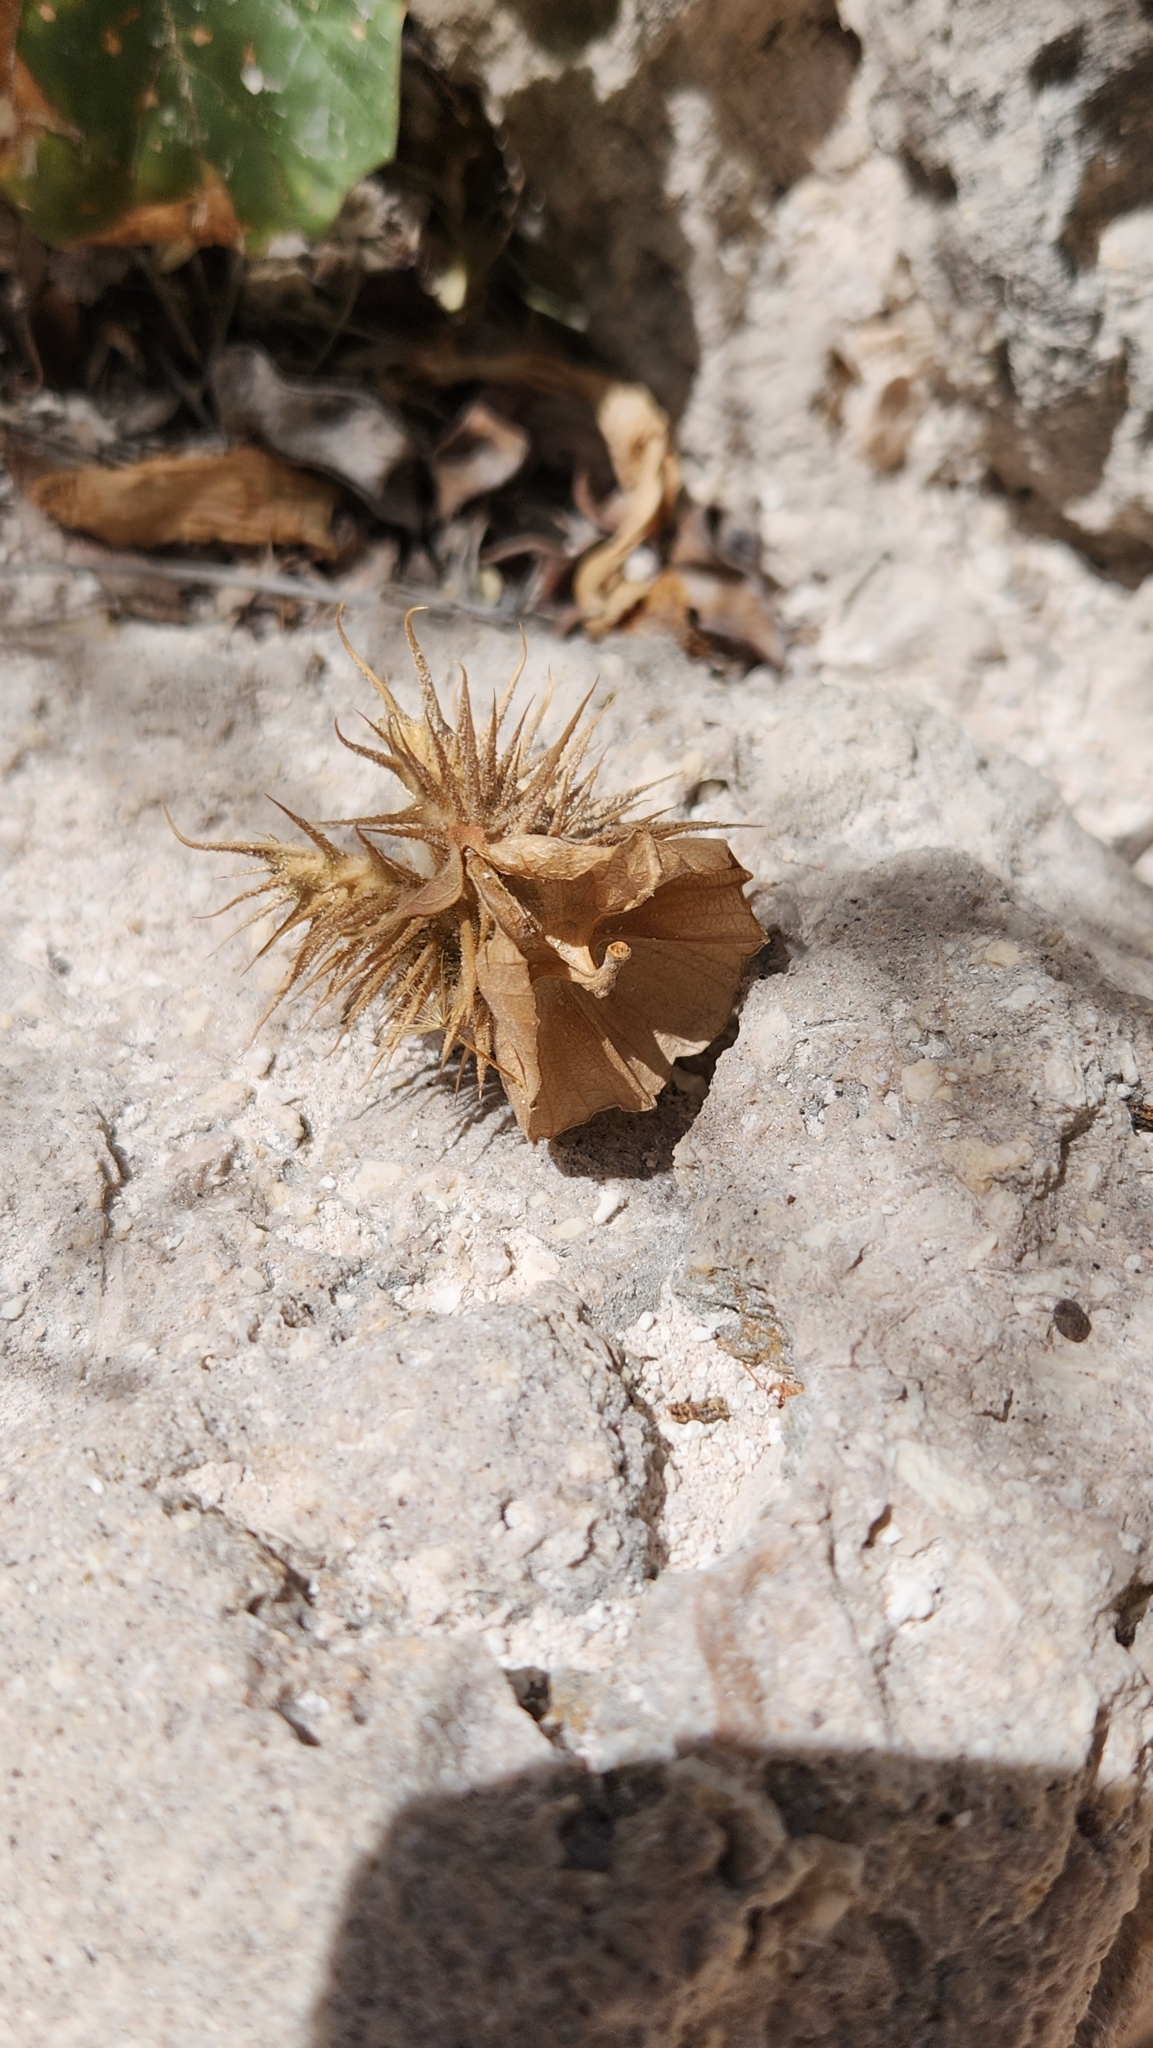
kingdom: Plantae
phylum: Tracheophyta
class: Magnoliopsida
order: Solanales
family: Solanaceae
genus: Datura
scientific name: Datura discolor
